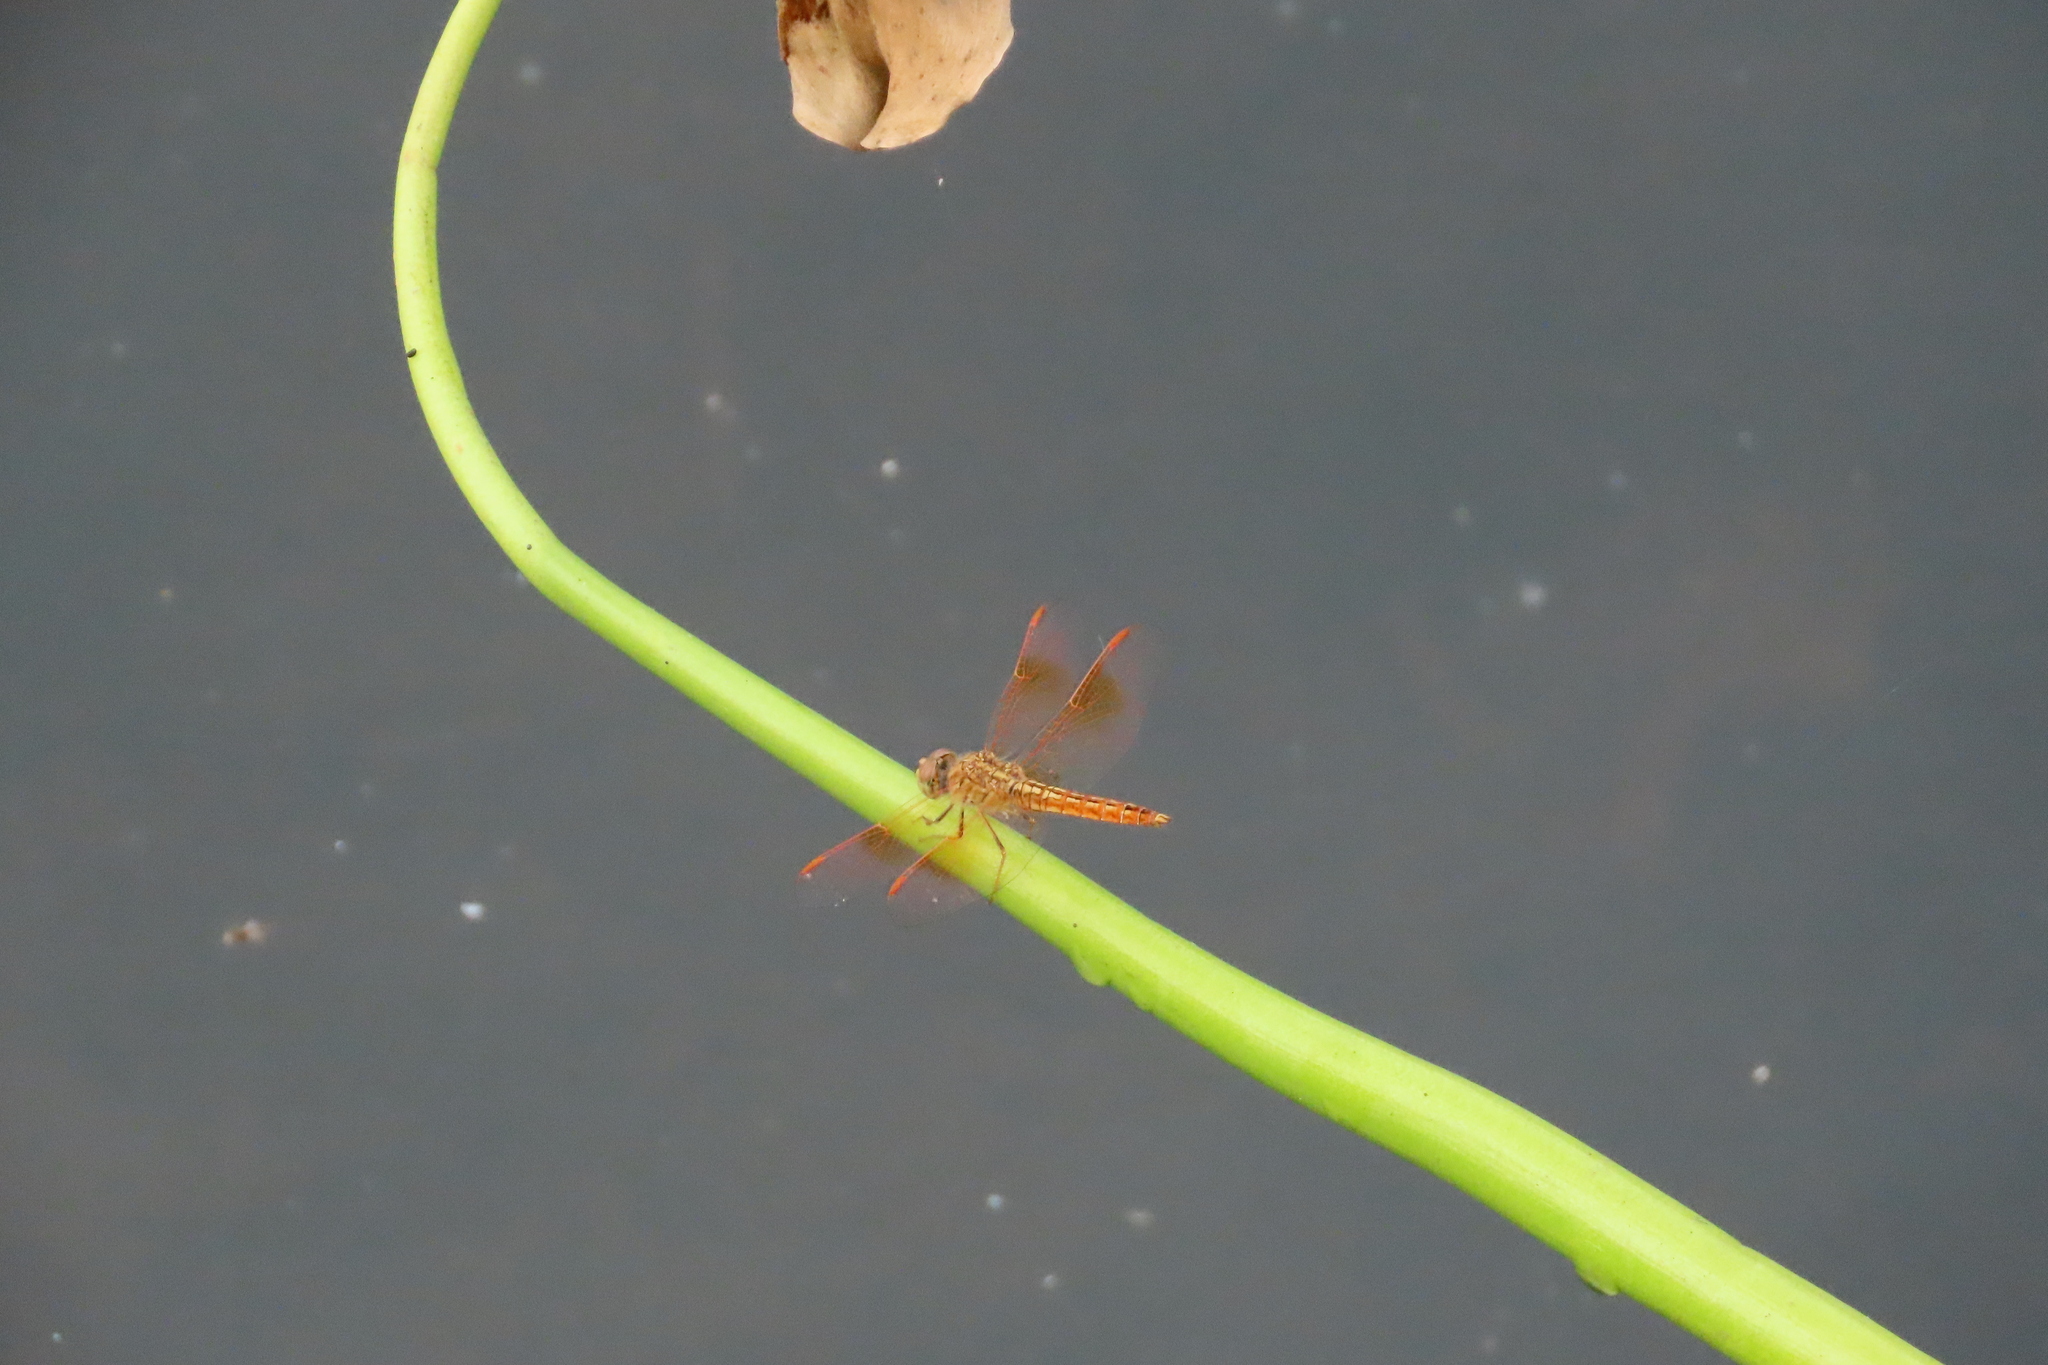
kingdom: Animalia
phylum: Arthropoda
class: Insecta
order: Odonata
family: Libellulidae
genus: Brachythemis
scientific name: Brachythemis contaminata
